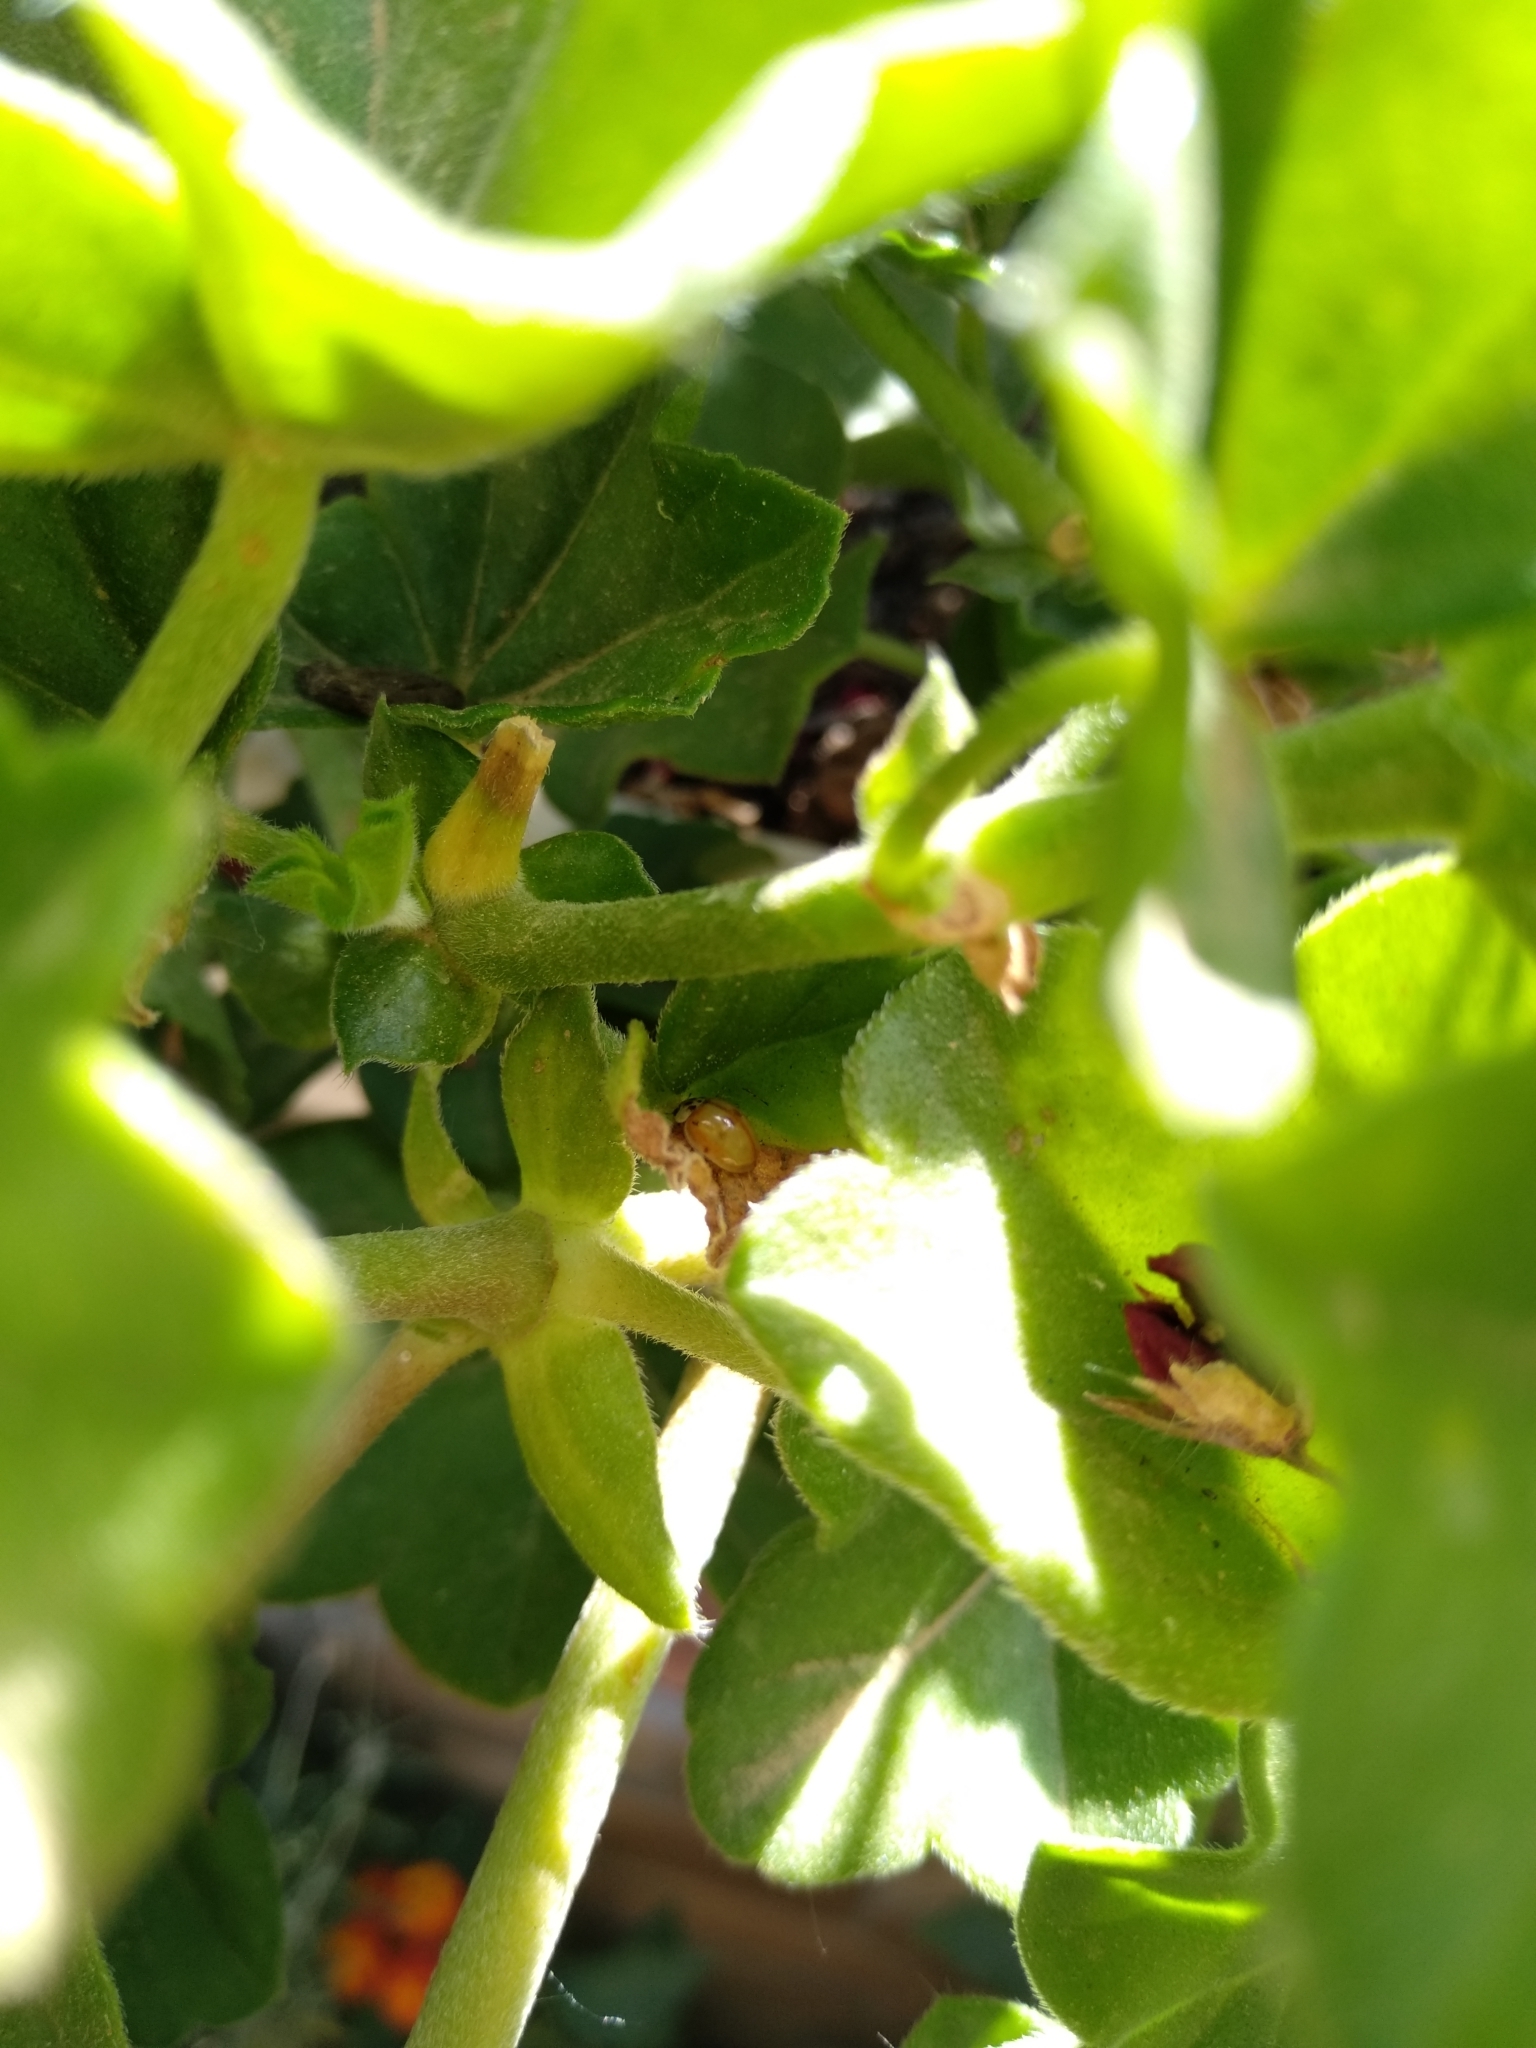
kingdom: Animalia
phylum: Arthropoda
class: Insecta
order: Coleoptera
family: Coccinellidae
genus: Adalia
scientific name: Adalia decempunctata
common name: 10-spot ladybird
